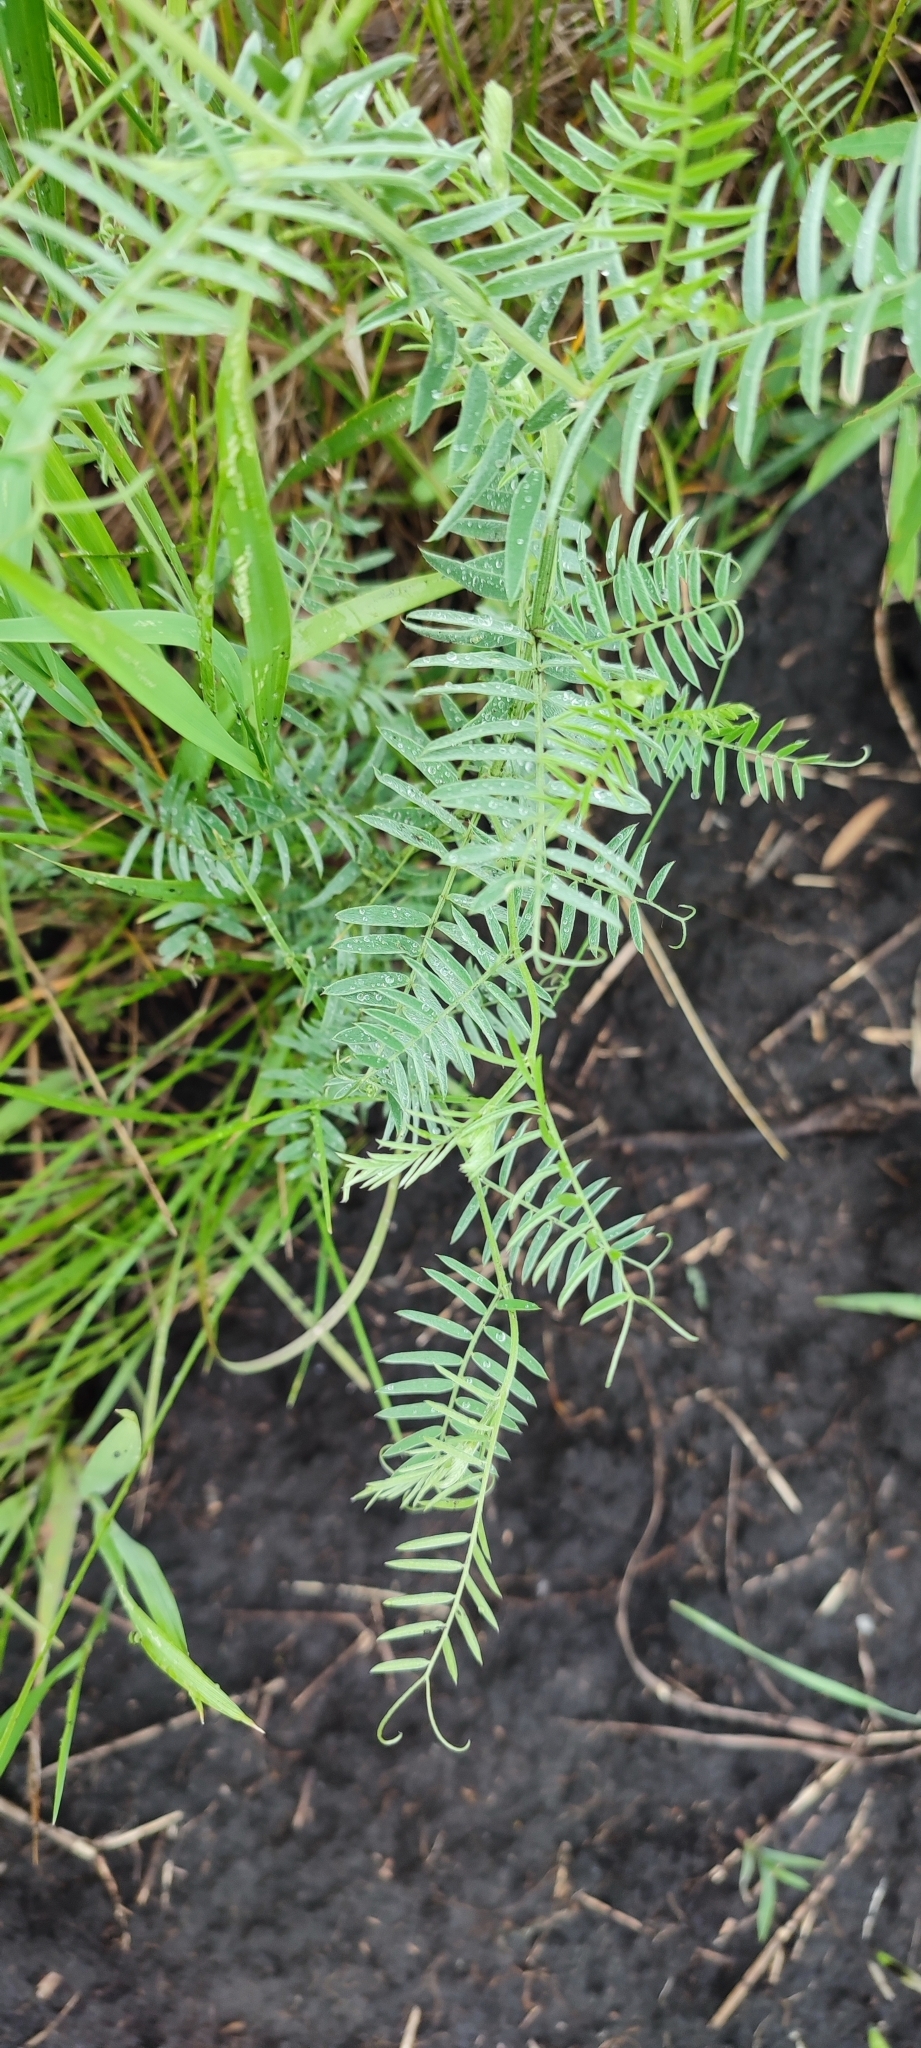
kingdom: Plantae
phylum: Tracheophyta
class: Magnoliopsida
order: Fabales
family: Fabaceae
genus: Vicia
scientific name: Vicia cracca
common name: Bird vetch
